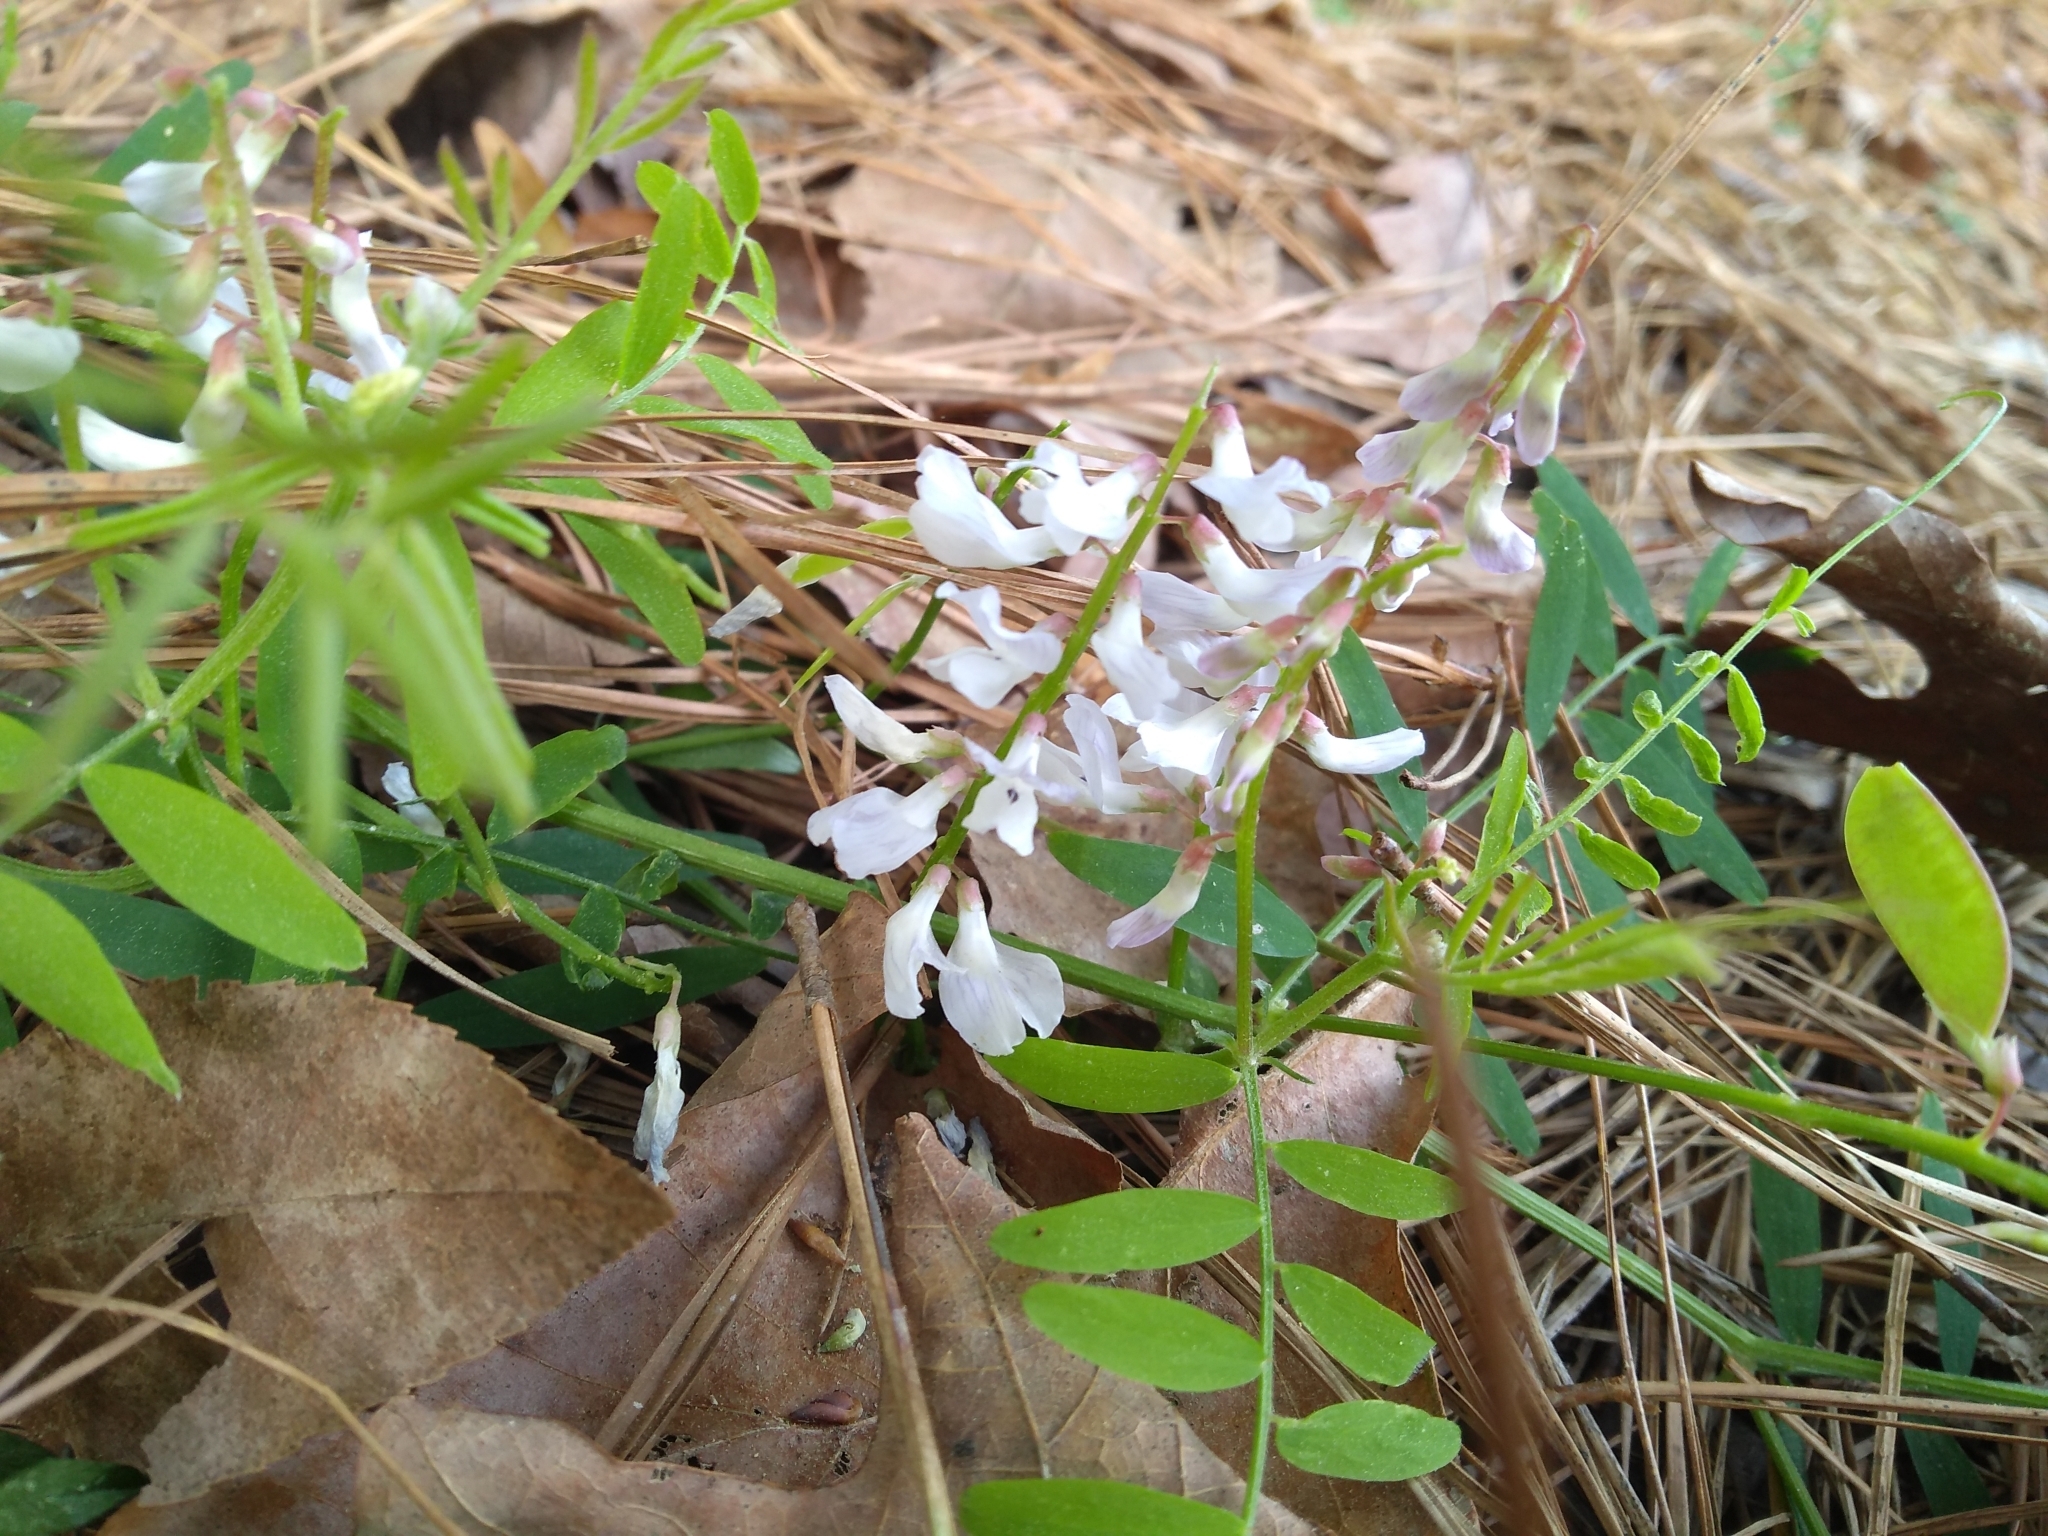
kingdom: Plantae
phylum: Tracheophyta
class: Magnoliopsida
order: Fabales
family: Fabaceae
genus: Vicia
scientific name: Vicia caroliniana
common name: Carolina vetch
